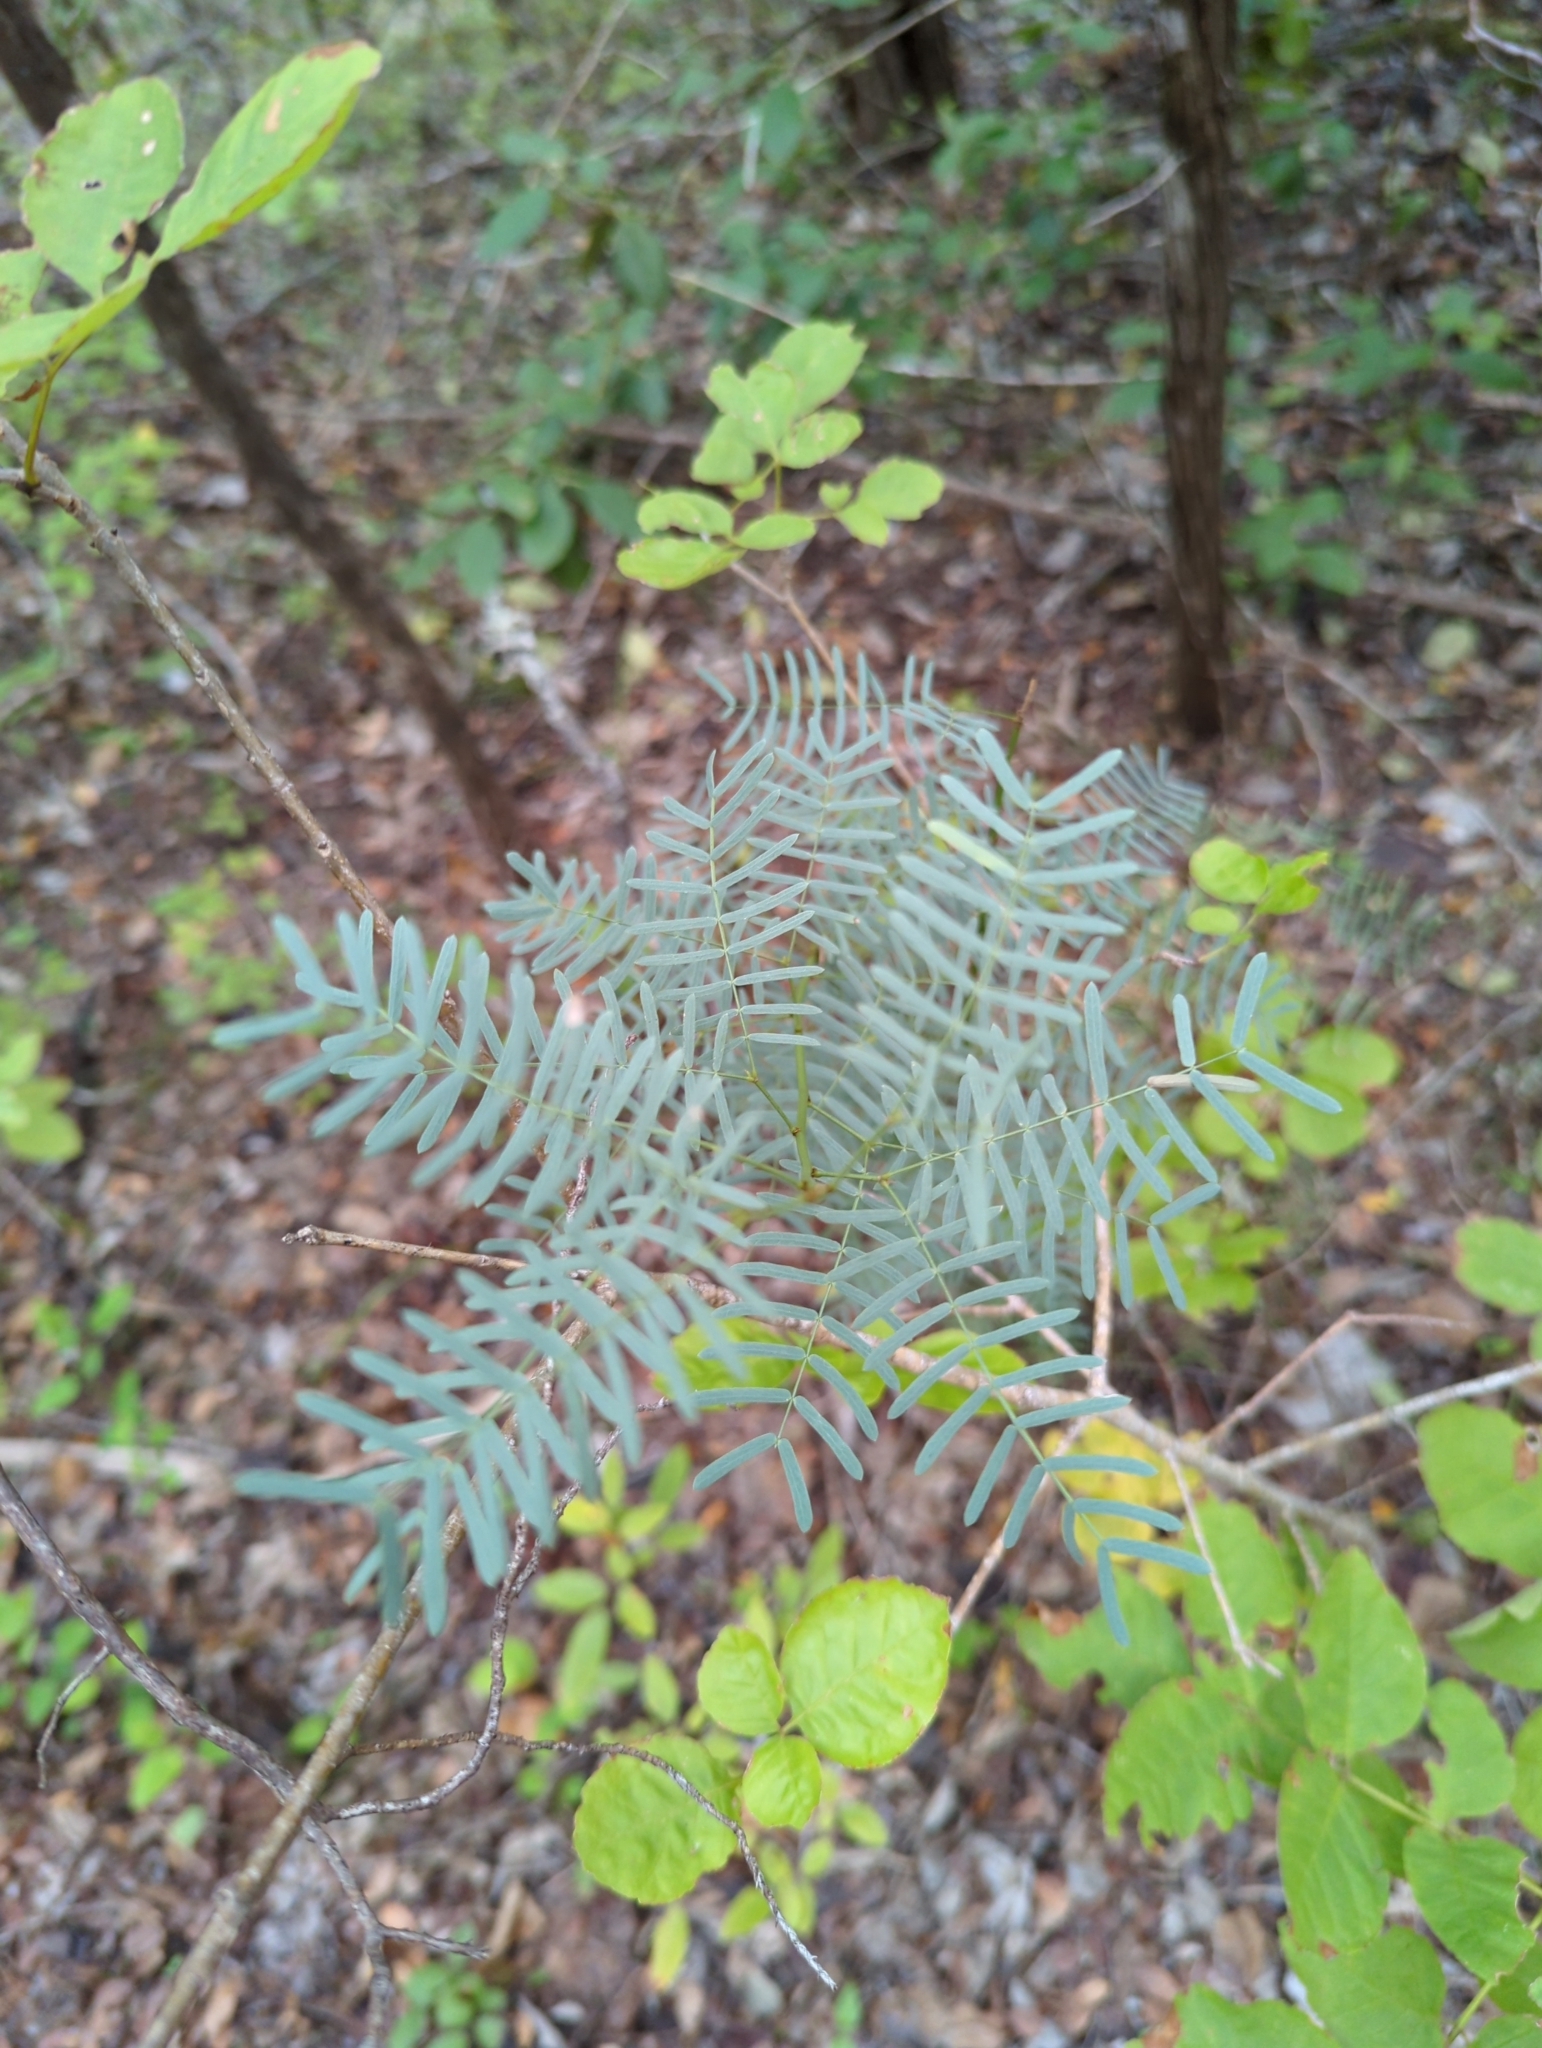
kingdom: Plantae
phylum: Tracheophyta
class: Magnoliopsida
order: Fabales
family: Fabaceae
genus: Prosopis
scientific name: Prosopis glandulosa
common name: Honey mesquite
